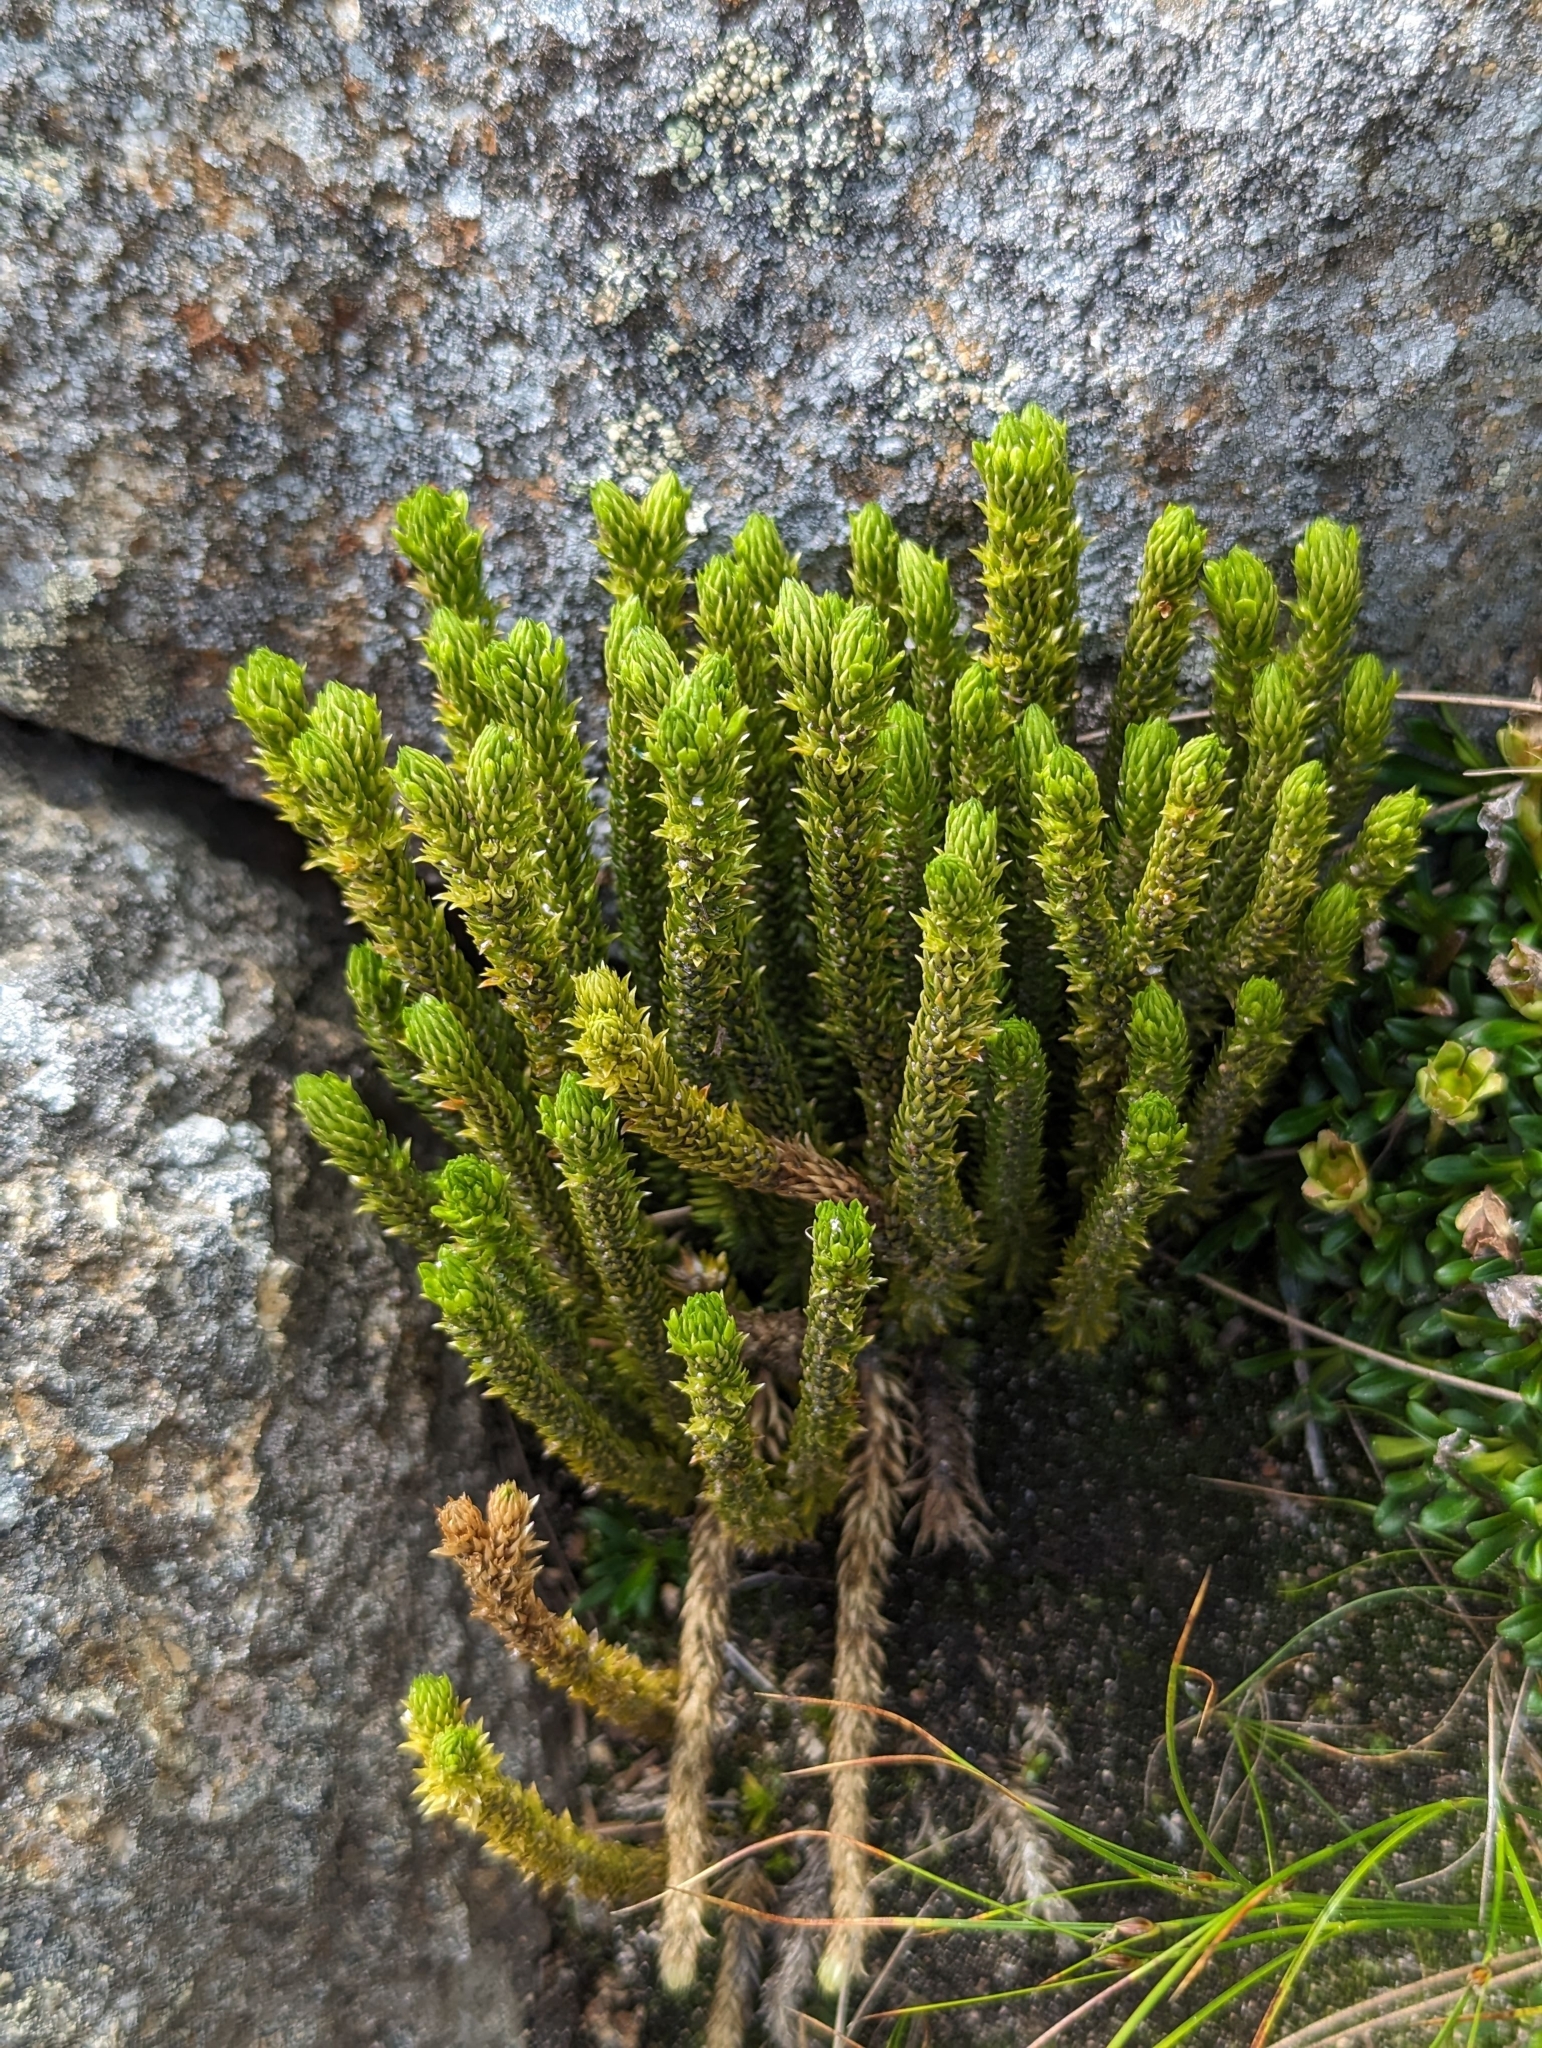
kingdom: Plantae
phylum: Tracheophyta
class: Lycopodiopsida
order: Lycopodiales
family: Lycopodiaceae
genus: Huperzia
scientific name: Huperzia selago
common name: Northern firmoss
